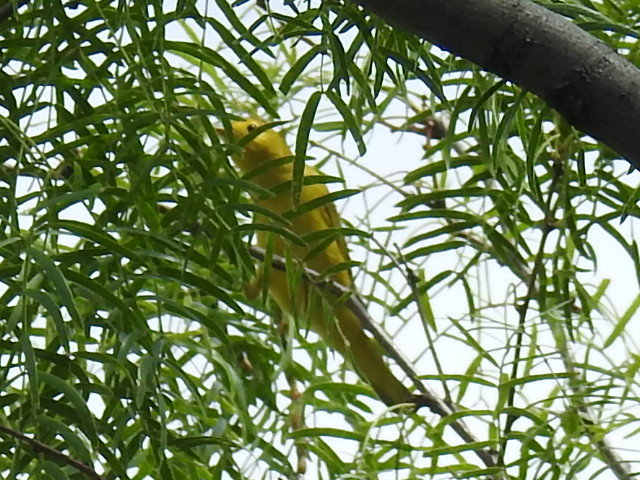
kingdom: Animalia
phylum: Chordata
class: Aves
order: Passeriformes
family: Parulidae
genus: Setophaga
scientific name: Setophaga petechia
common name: Yellow warbler
